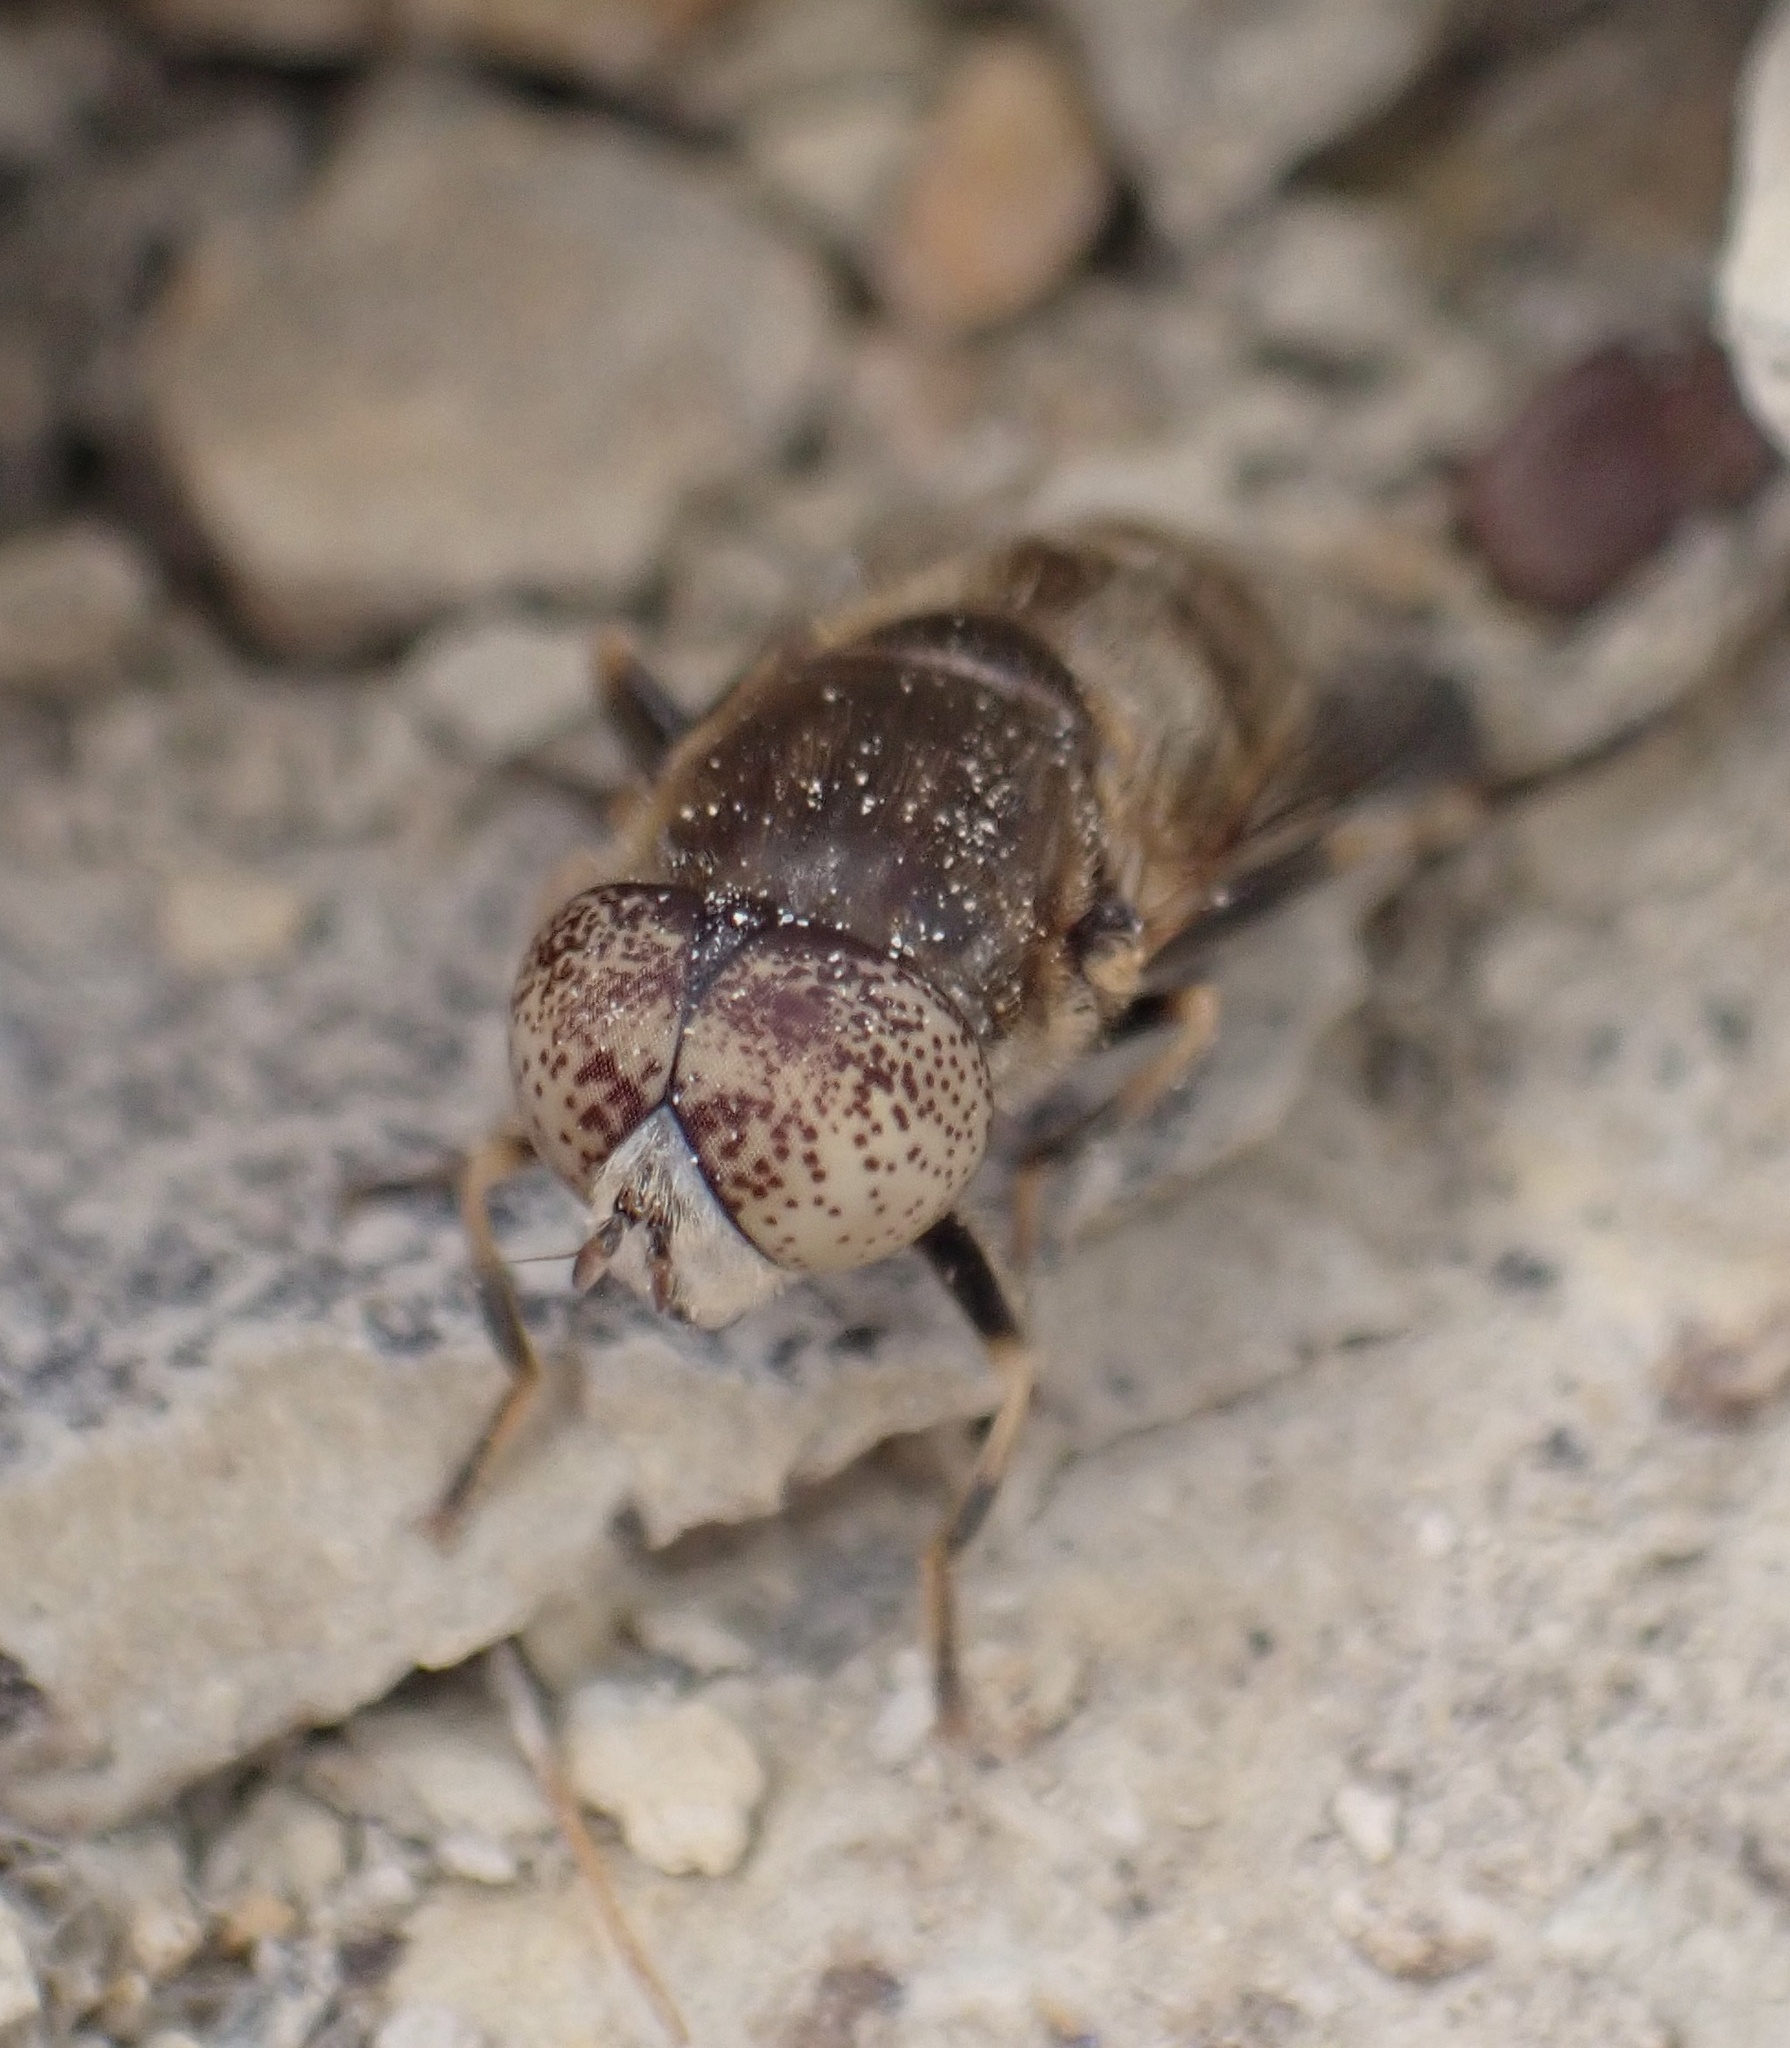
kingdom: Animalia
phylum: Arthropoda
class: Insecta
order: Diptera
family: Syrphidae
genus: Eristalinus
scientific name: Eristalinus aeneus
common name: Syrphid fly
